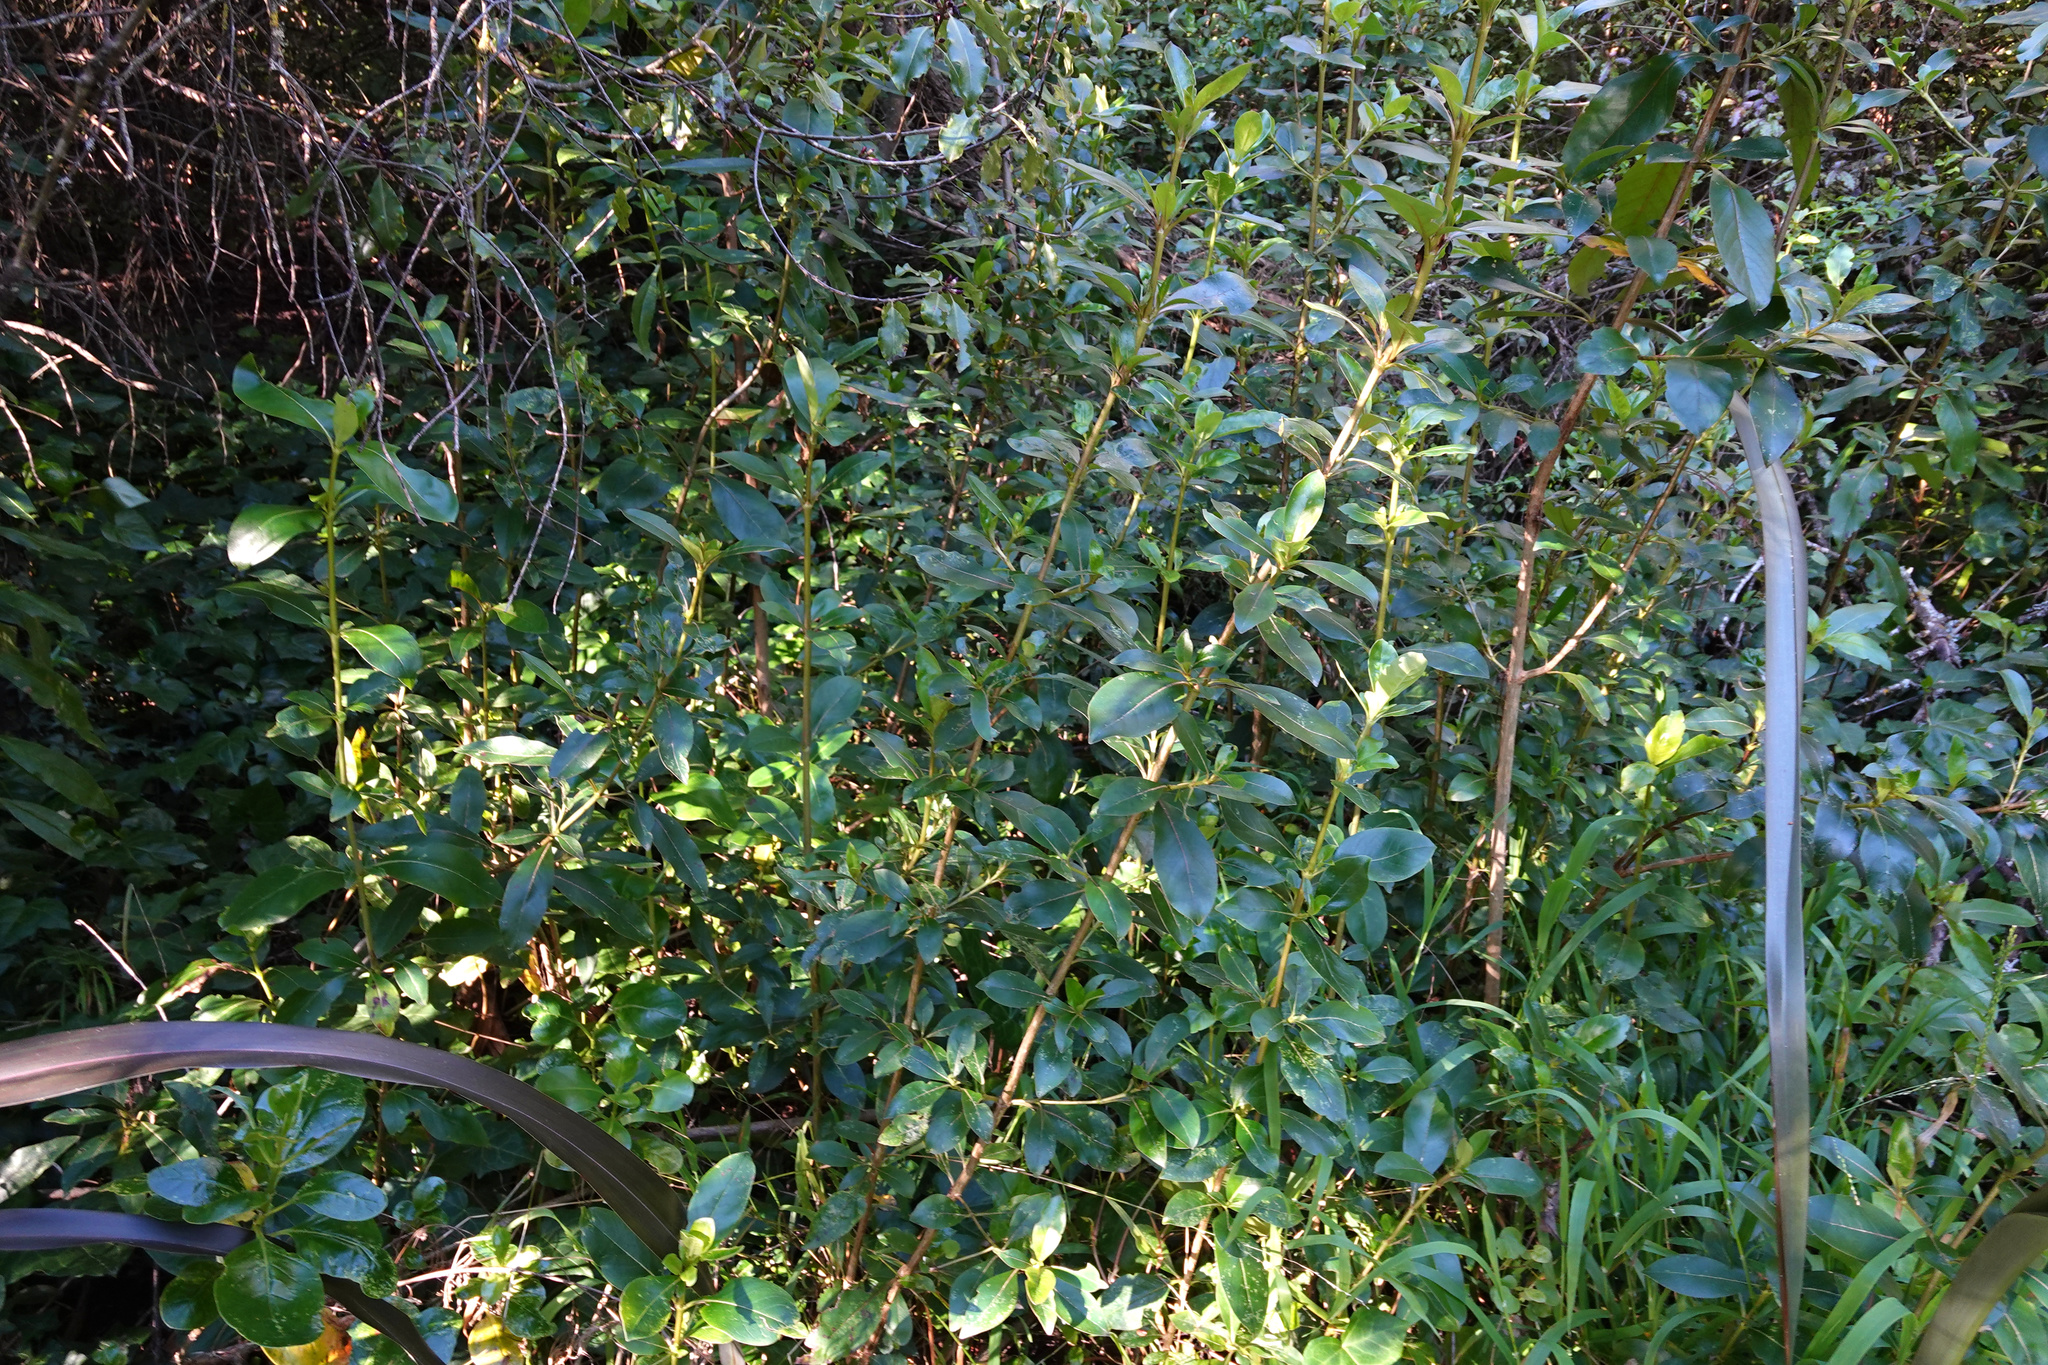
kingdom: Plantae
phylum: Tracheophyta
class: Magnoliopsida
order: Gentianales
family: Rubiaceae
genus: Coprosma
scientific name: Coprosma robusta
